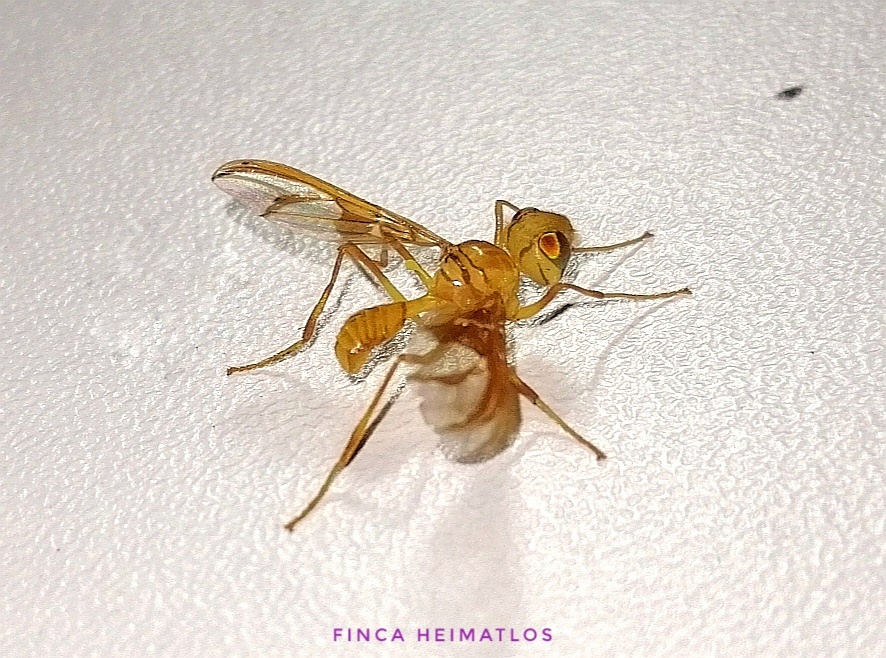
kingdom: Animalia
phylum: Arthropoda
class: Insecta
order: Diptera
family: Ctenostylidae
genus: Lochmostylia
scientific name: Lochmostylia borgmeieri
